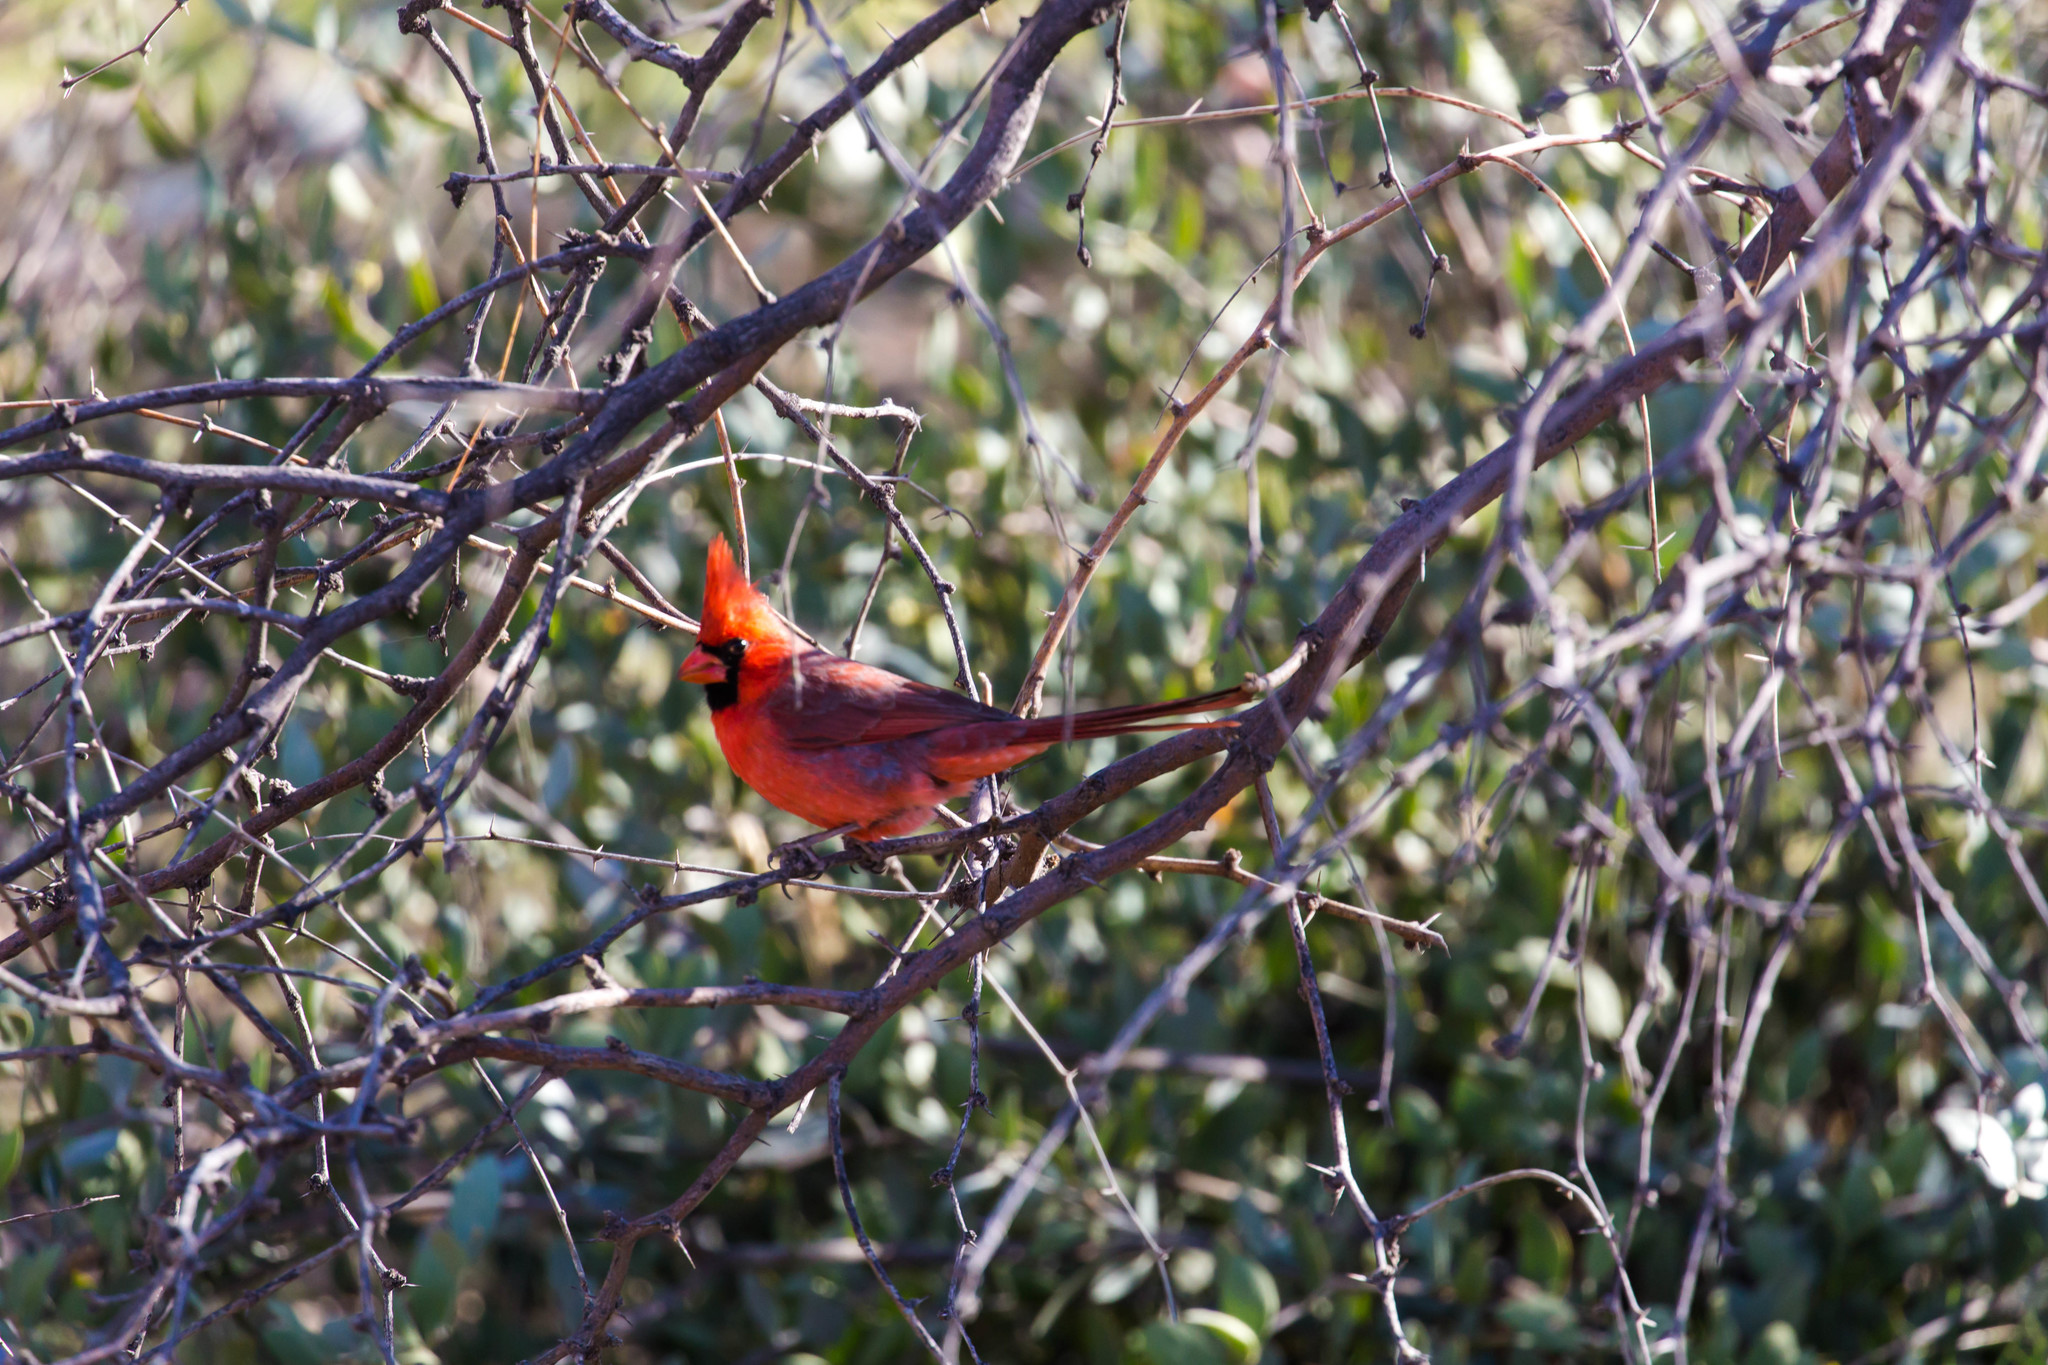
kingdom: Animalia
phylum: Chordata
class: Aves
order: Passeriformes
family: Cardinalidae
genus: Cardinalis
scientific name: Cardinalis cardinalis
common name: Northern cardinal
